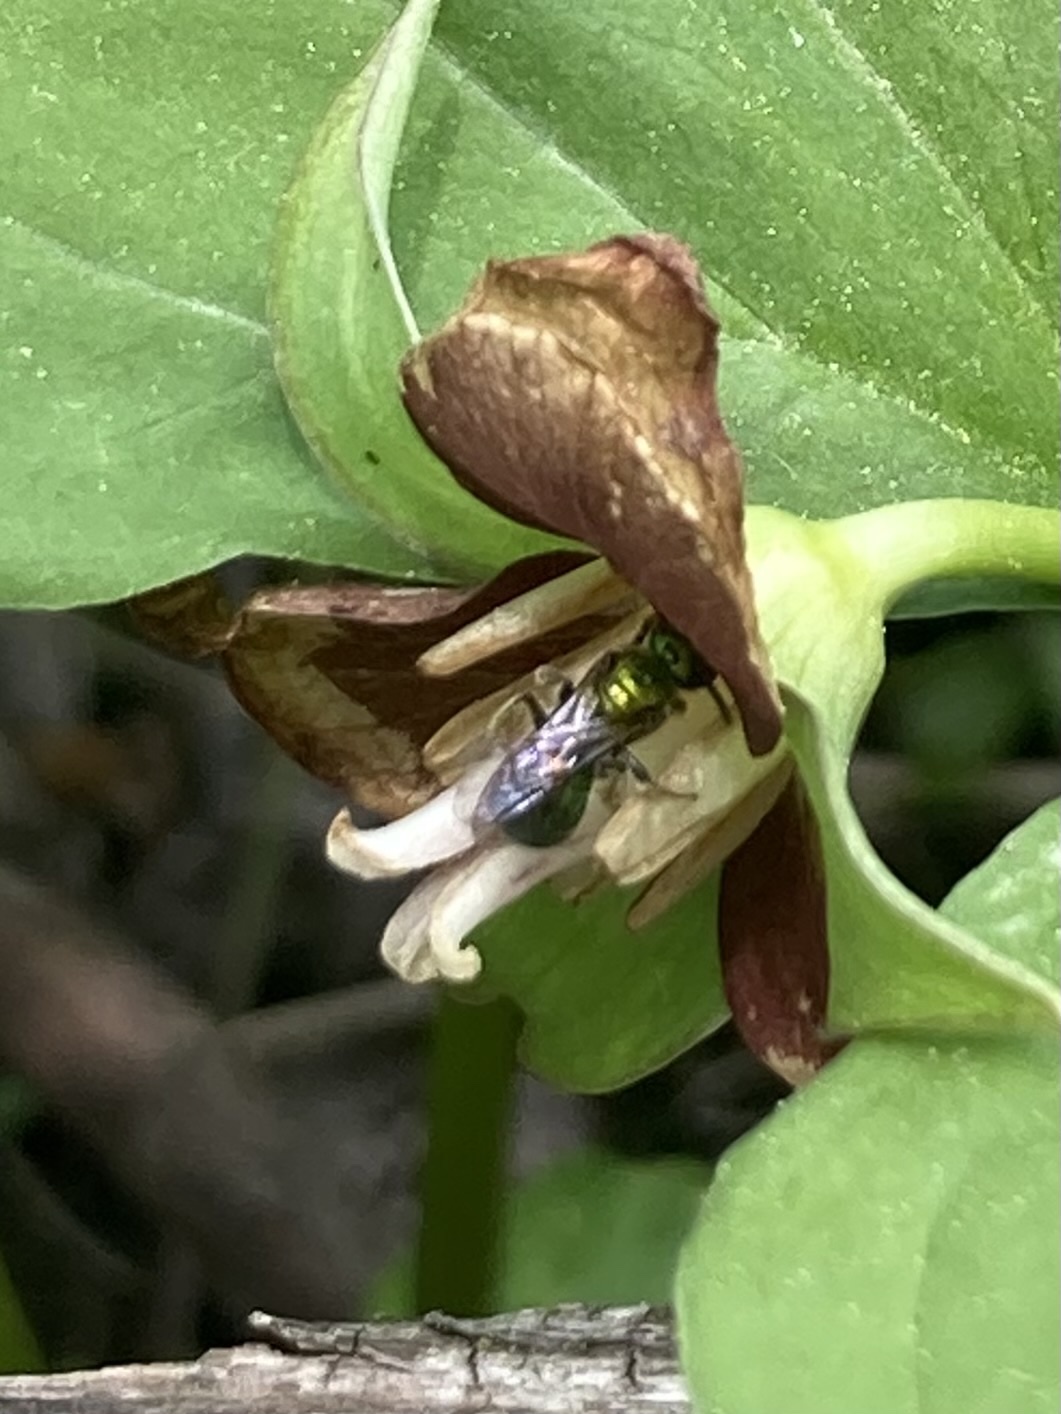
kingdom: Animalia
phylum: Arthropoda
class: Insecta
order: Hymenoptera
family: Halictidae
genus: Augochlora
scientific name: Augochlora pura
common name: Pure green sweat bee
